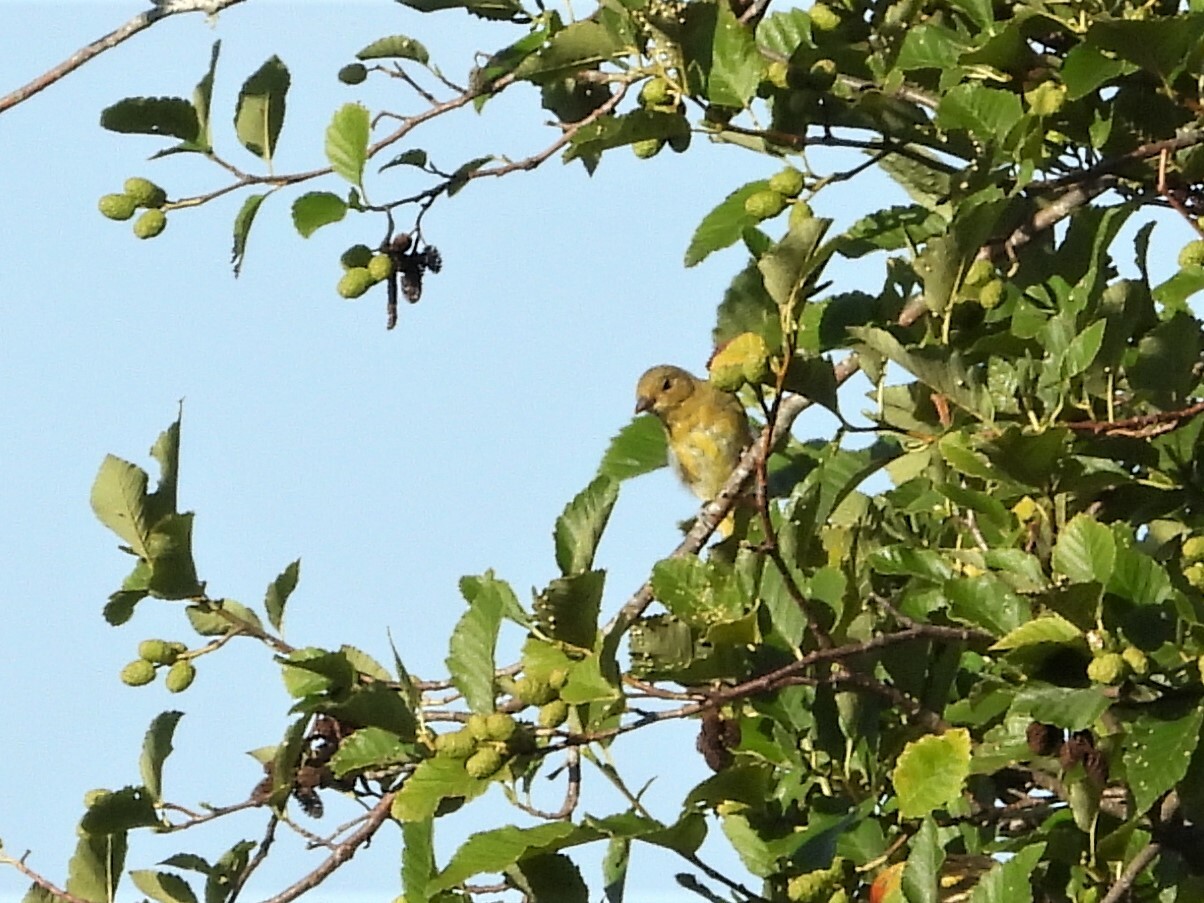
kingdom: Animalia
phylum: Chordata
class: Aves
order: Passeriformes
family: Cardinalidae
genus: Piranga
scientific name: Piranga ludoviciana
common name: Western tanager
